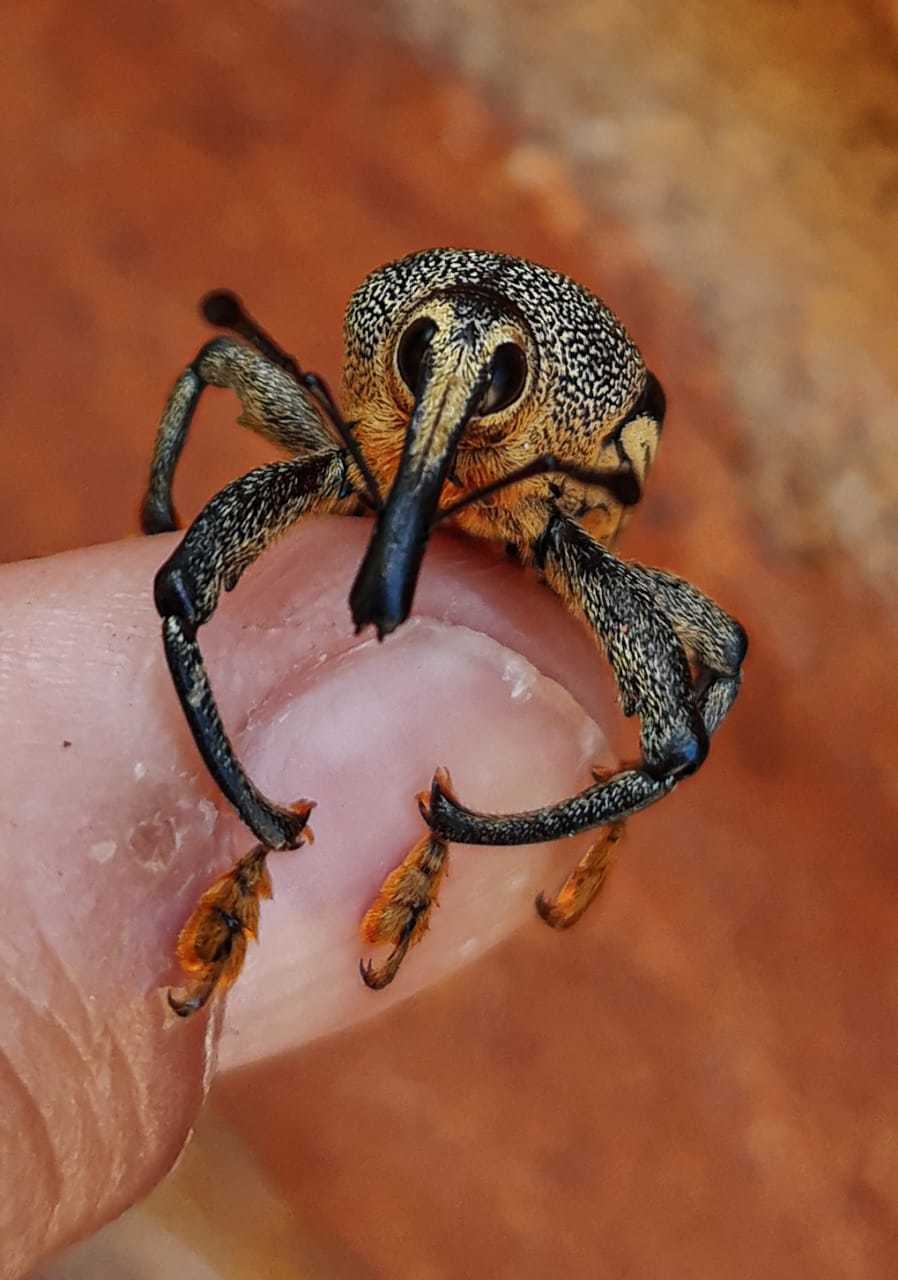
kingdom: Animalia
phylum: Arthropoda
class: Insecta
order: Coleoptera
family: Curculionidae
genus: Cholus
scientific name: Cholus parallelogrammus
